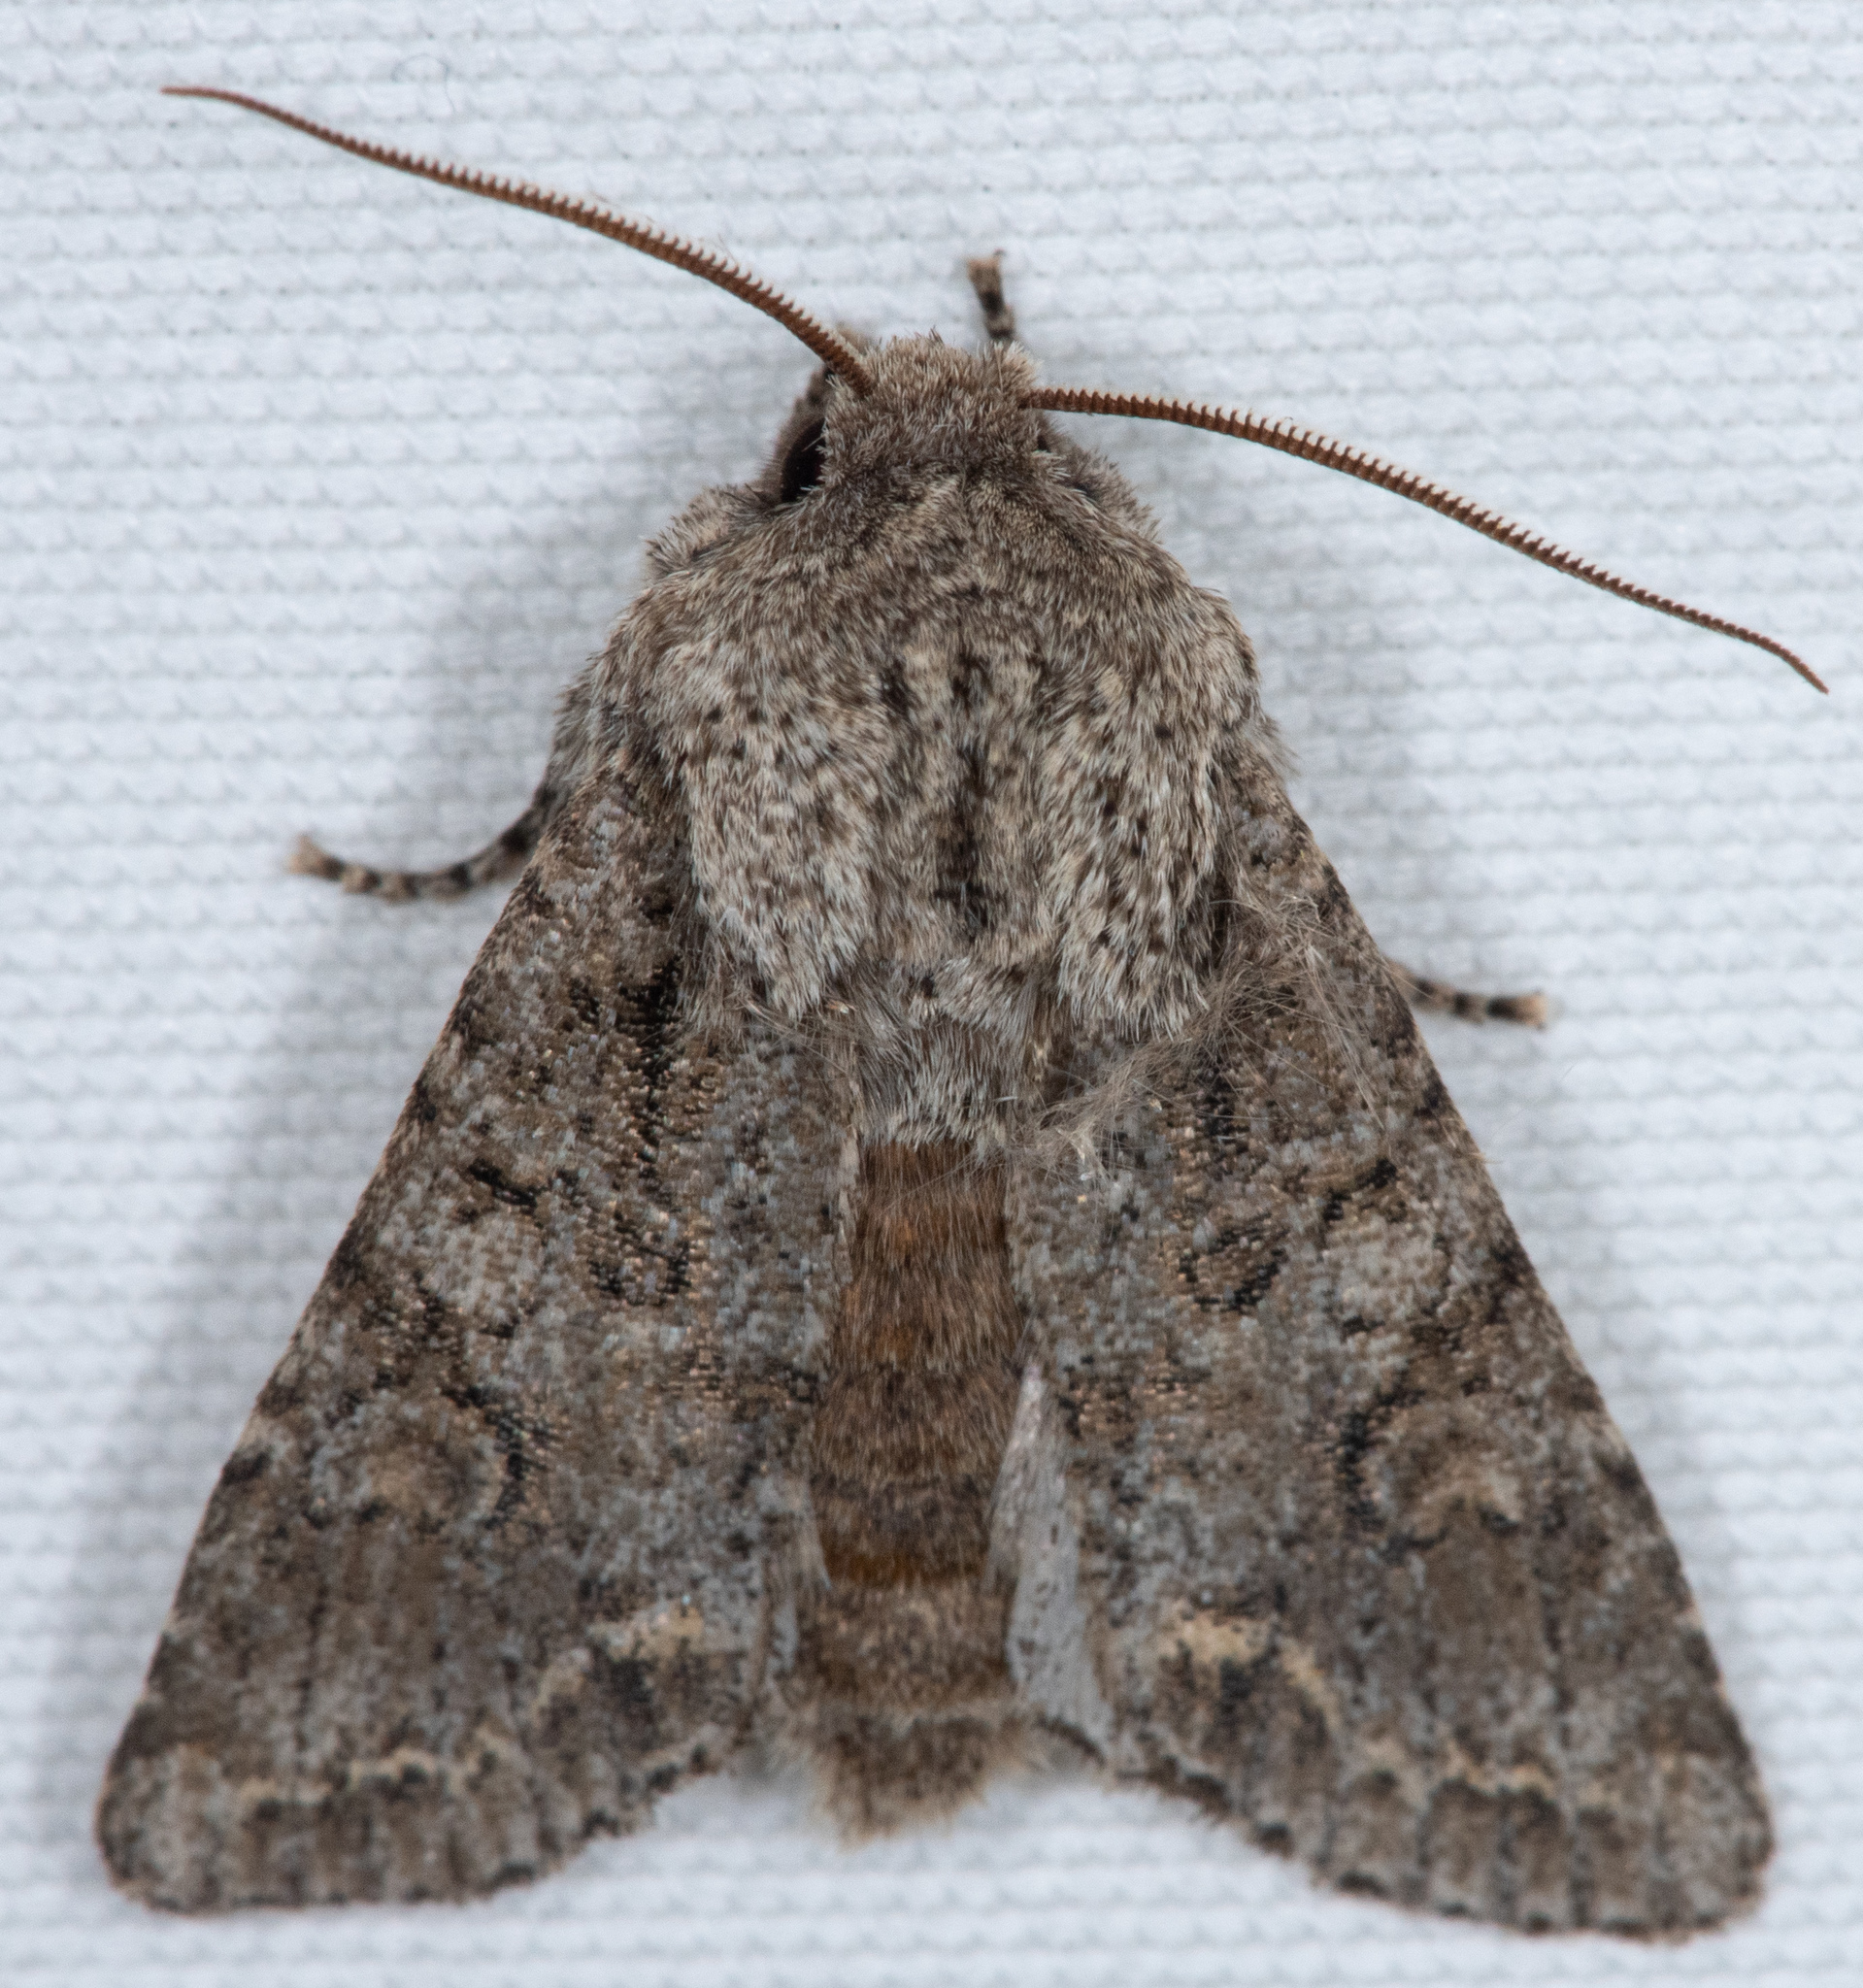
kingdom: Animalia
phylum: Arthropoda
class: Insecta
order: Lepidoptera
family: Noctuidae
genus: Egira
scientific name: Egira cognata
